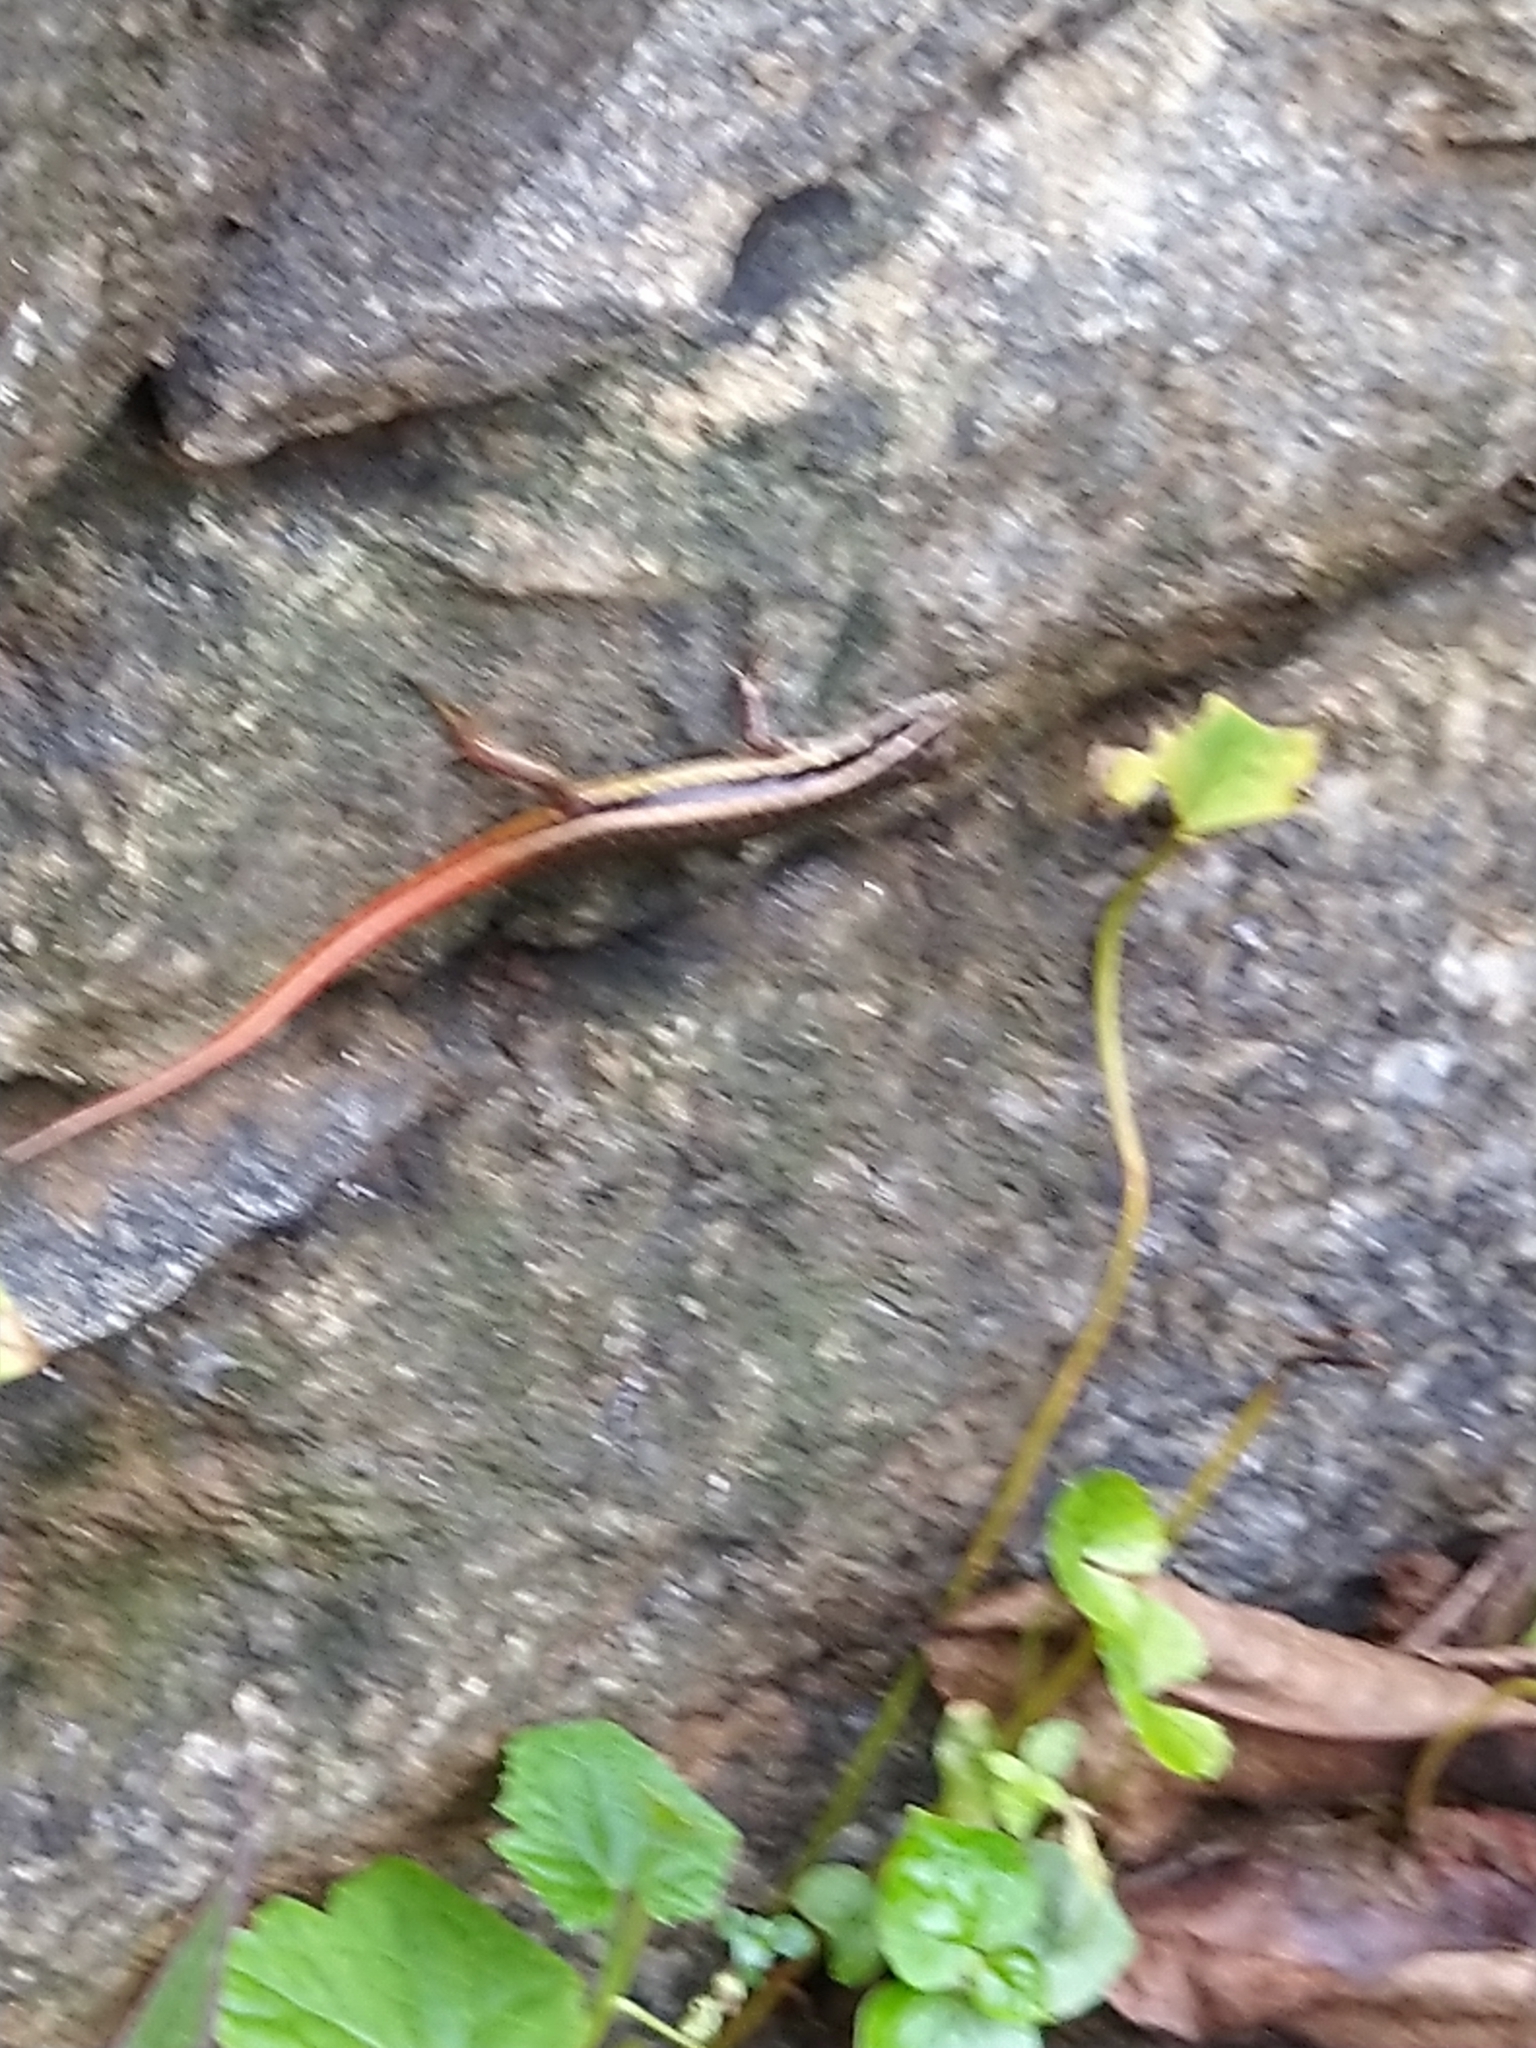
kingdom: Animalia
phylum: Chordata
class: Squamata
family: Scincidae
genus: Sphenomorphus
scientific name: Sphenomorphus dussumieri
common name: Dussumier's forest skink
